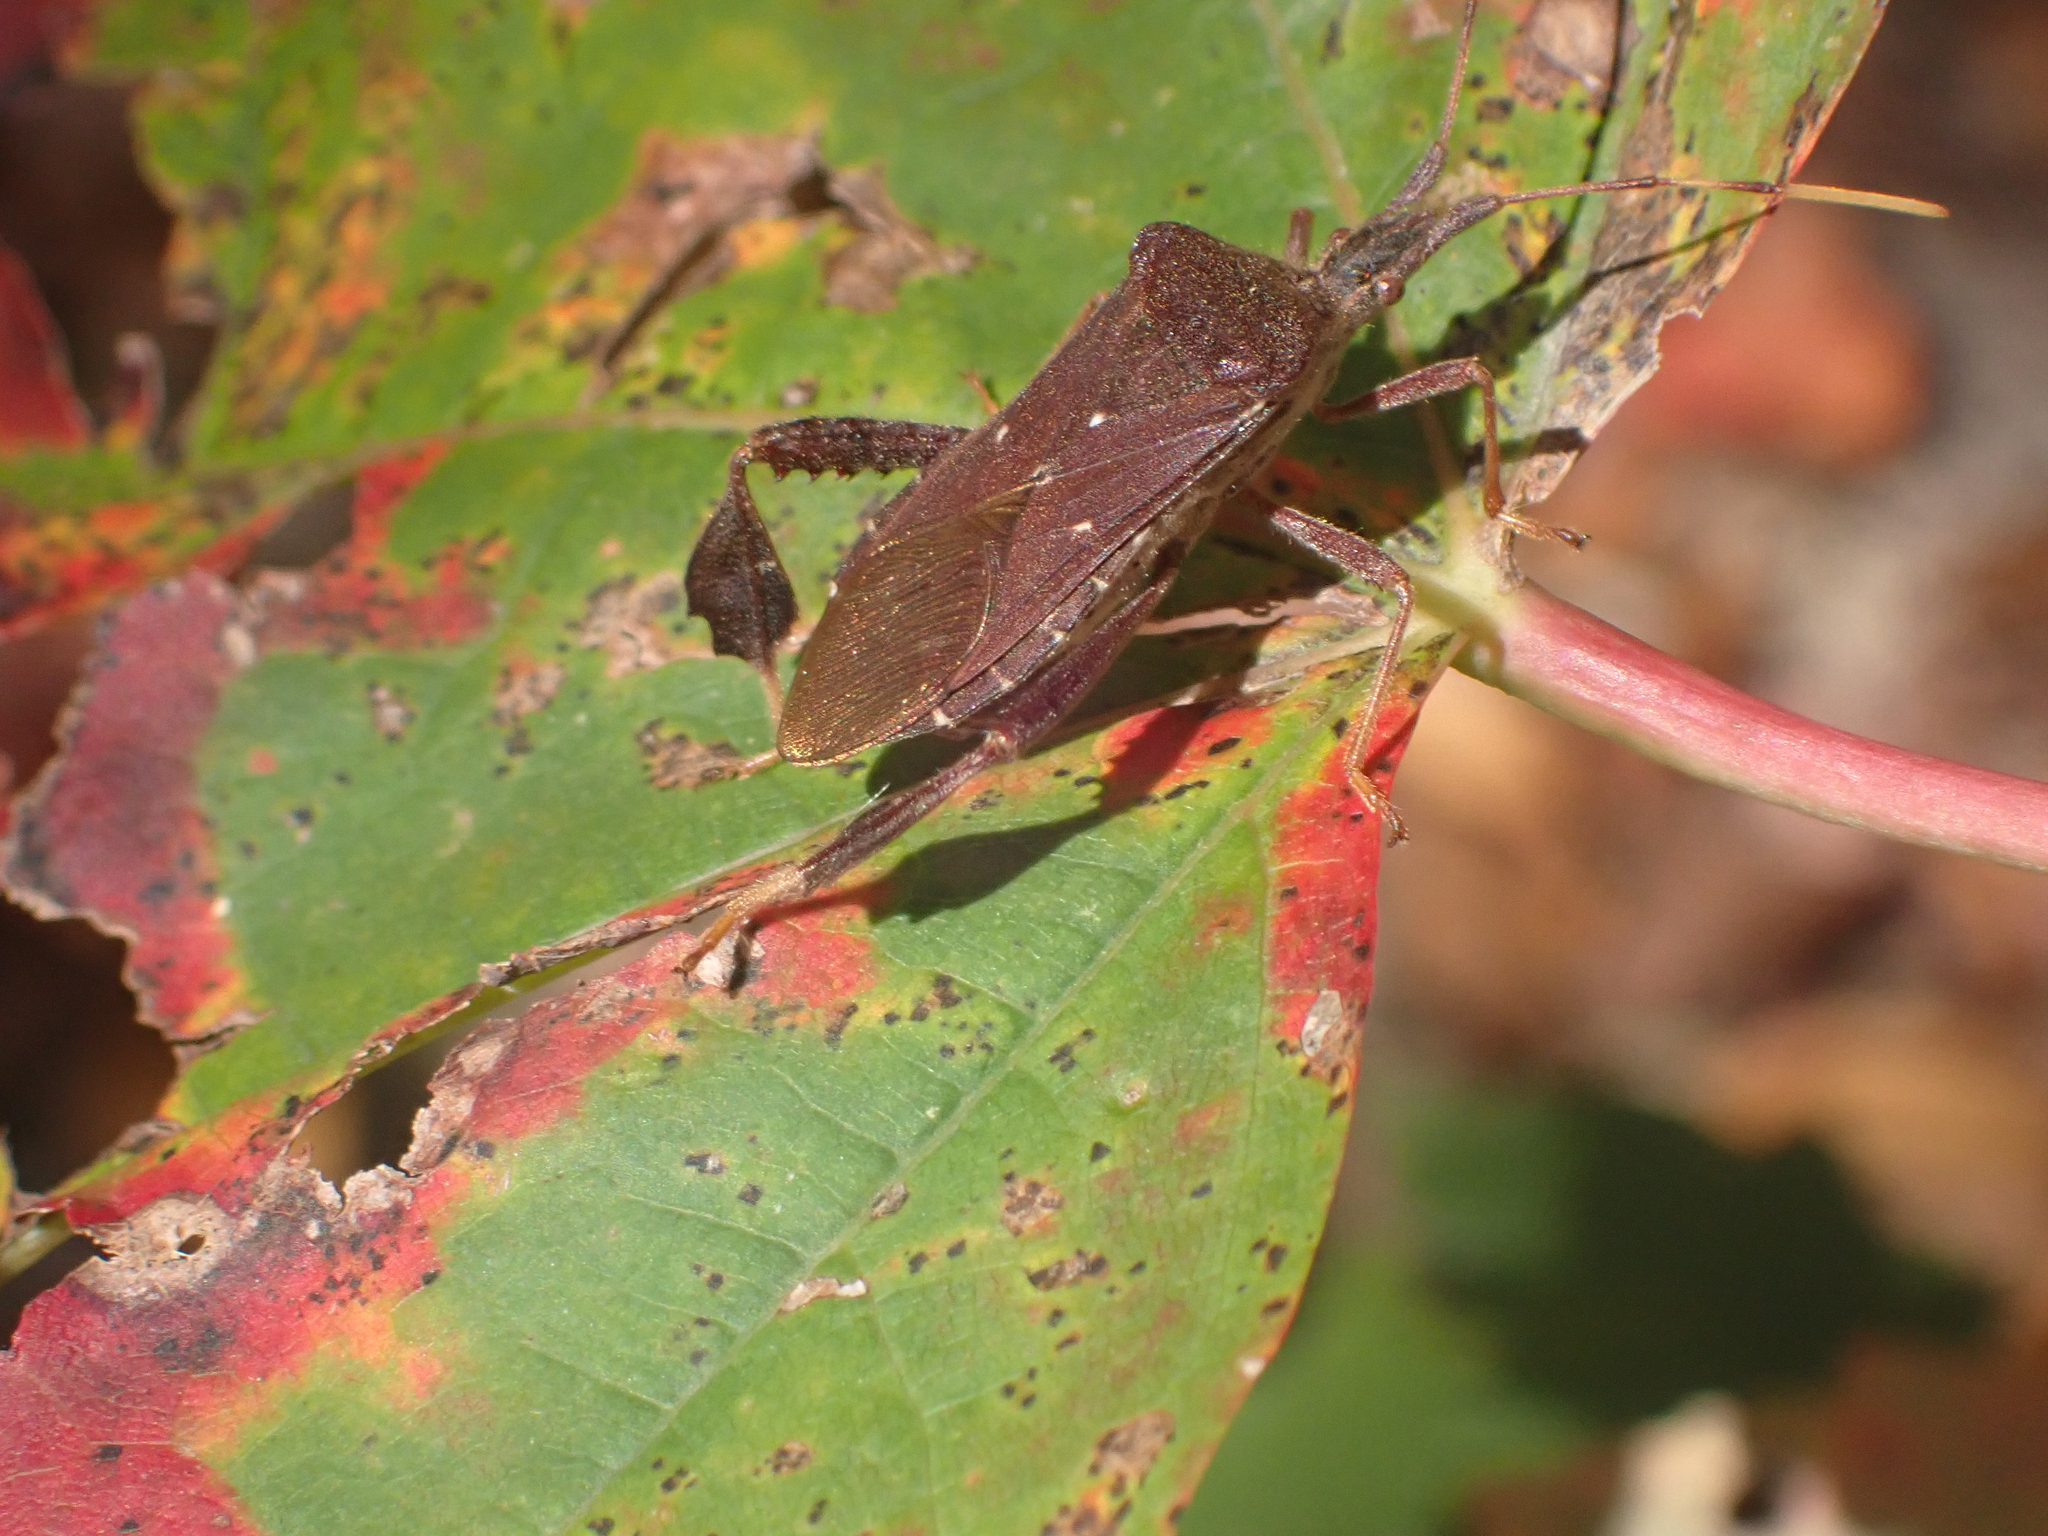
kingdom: Animalia
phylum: Arthropoda
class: Insecta
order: Hemiptera
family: Coreidae
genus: Leptoglossus
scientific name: Leptoglossus oppositus
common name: Northern leaf-footed bug
